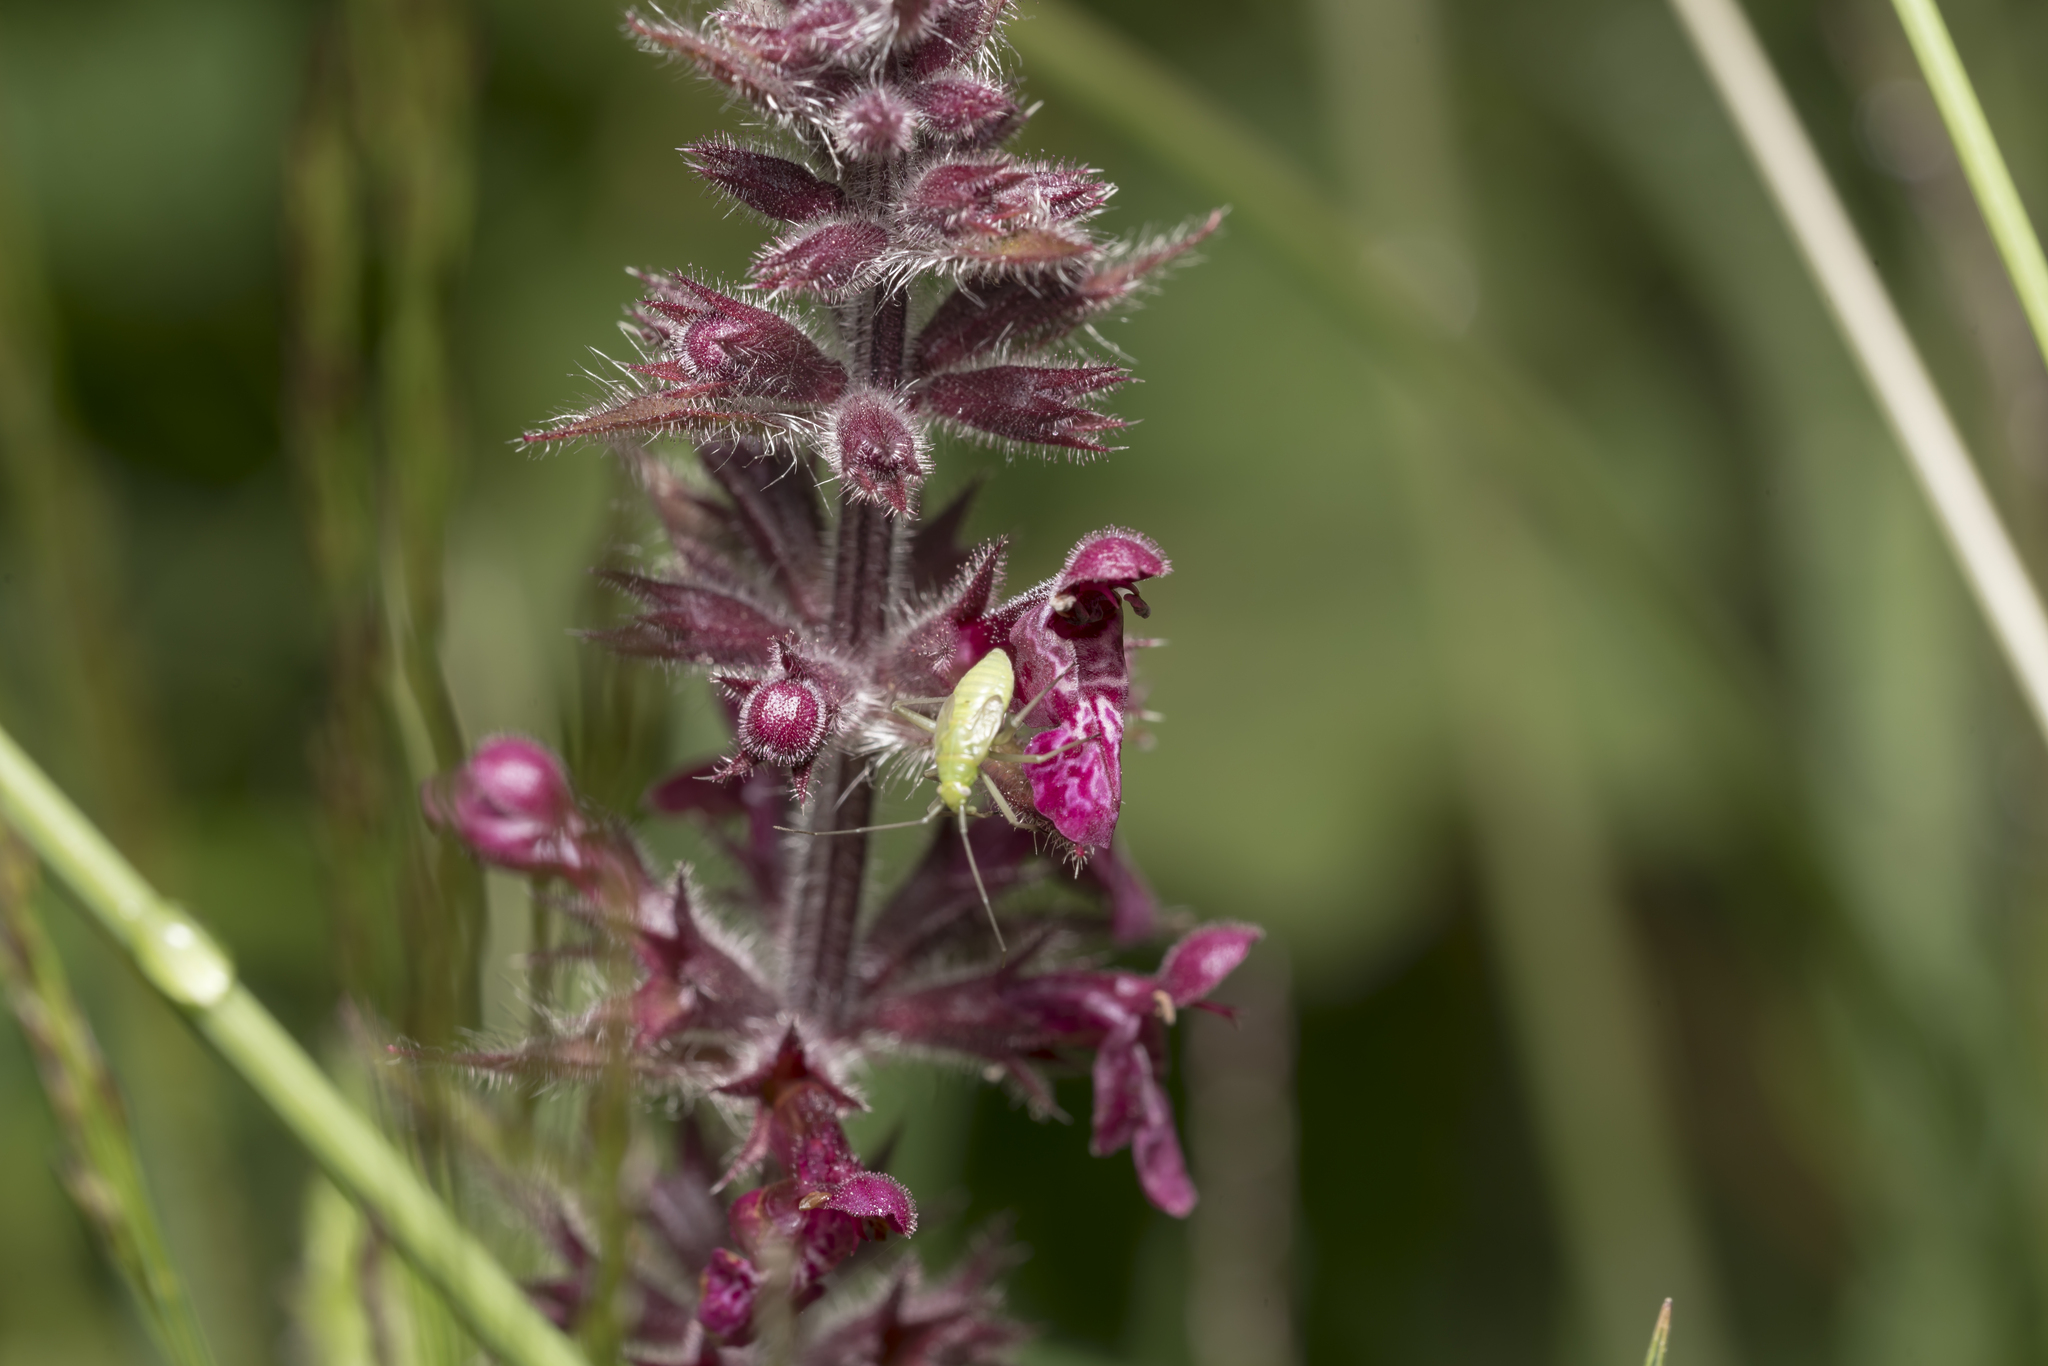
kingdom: Plantae
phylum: Tracheophyta
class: Magnoliopsida
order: Lamiales
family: Lamiaceae
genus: Stachys
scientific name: Stachys sylvatica
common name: Hedge woundwort
